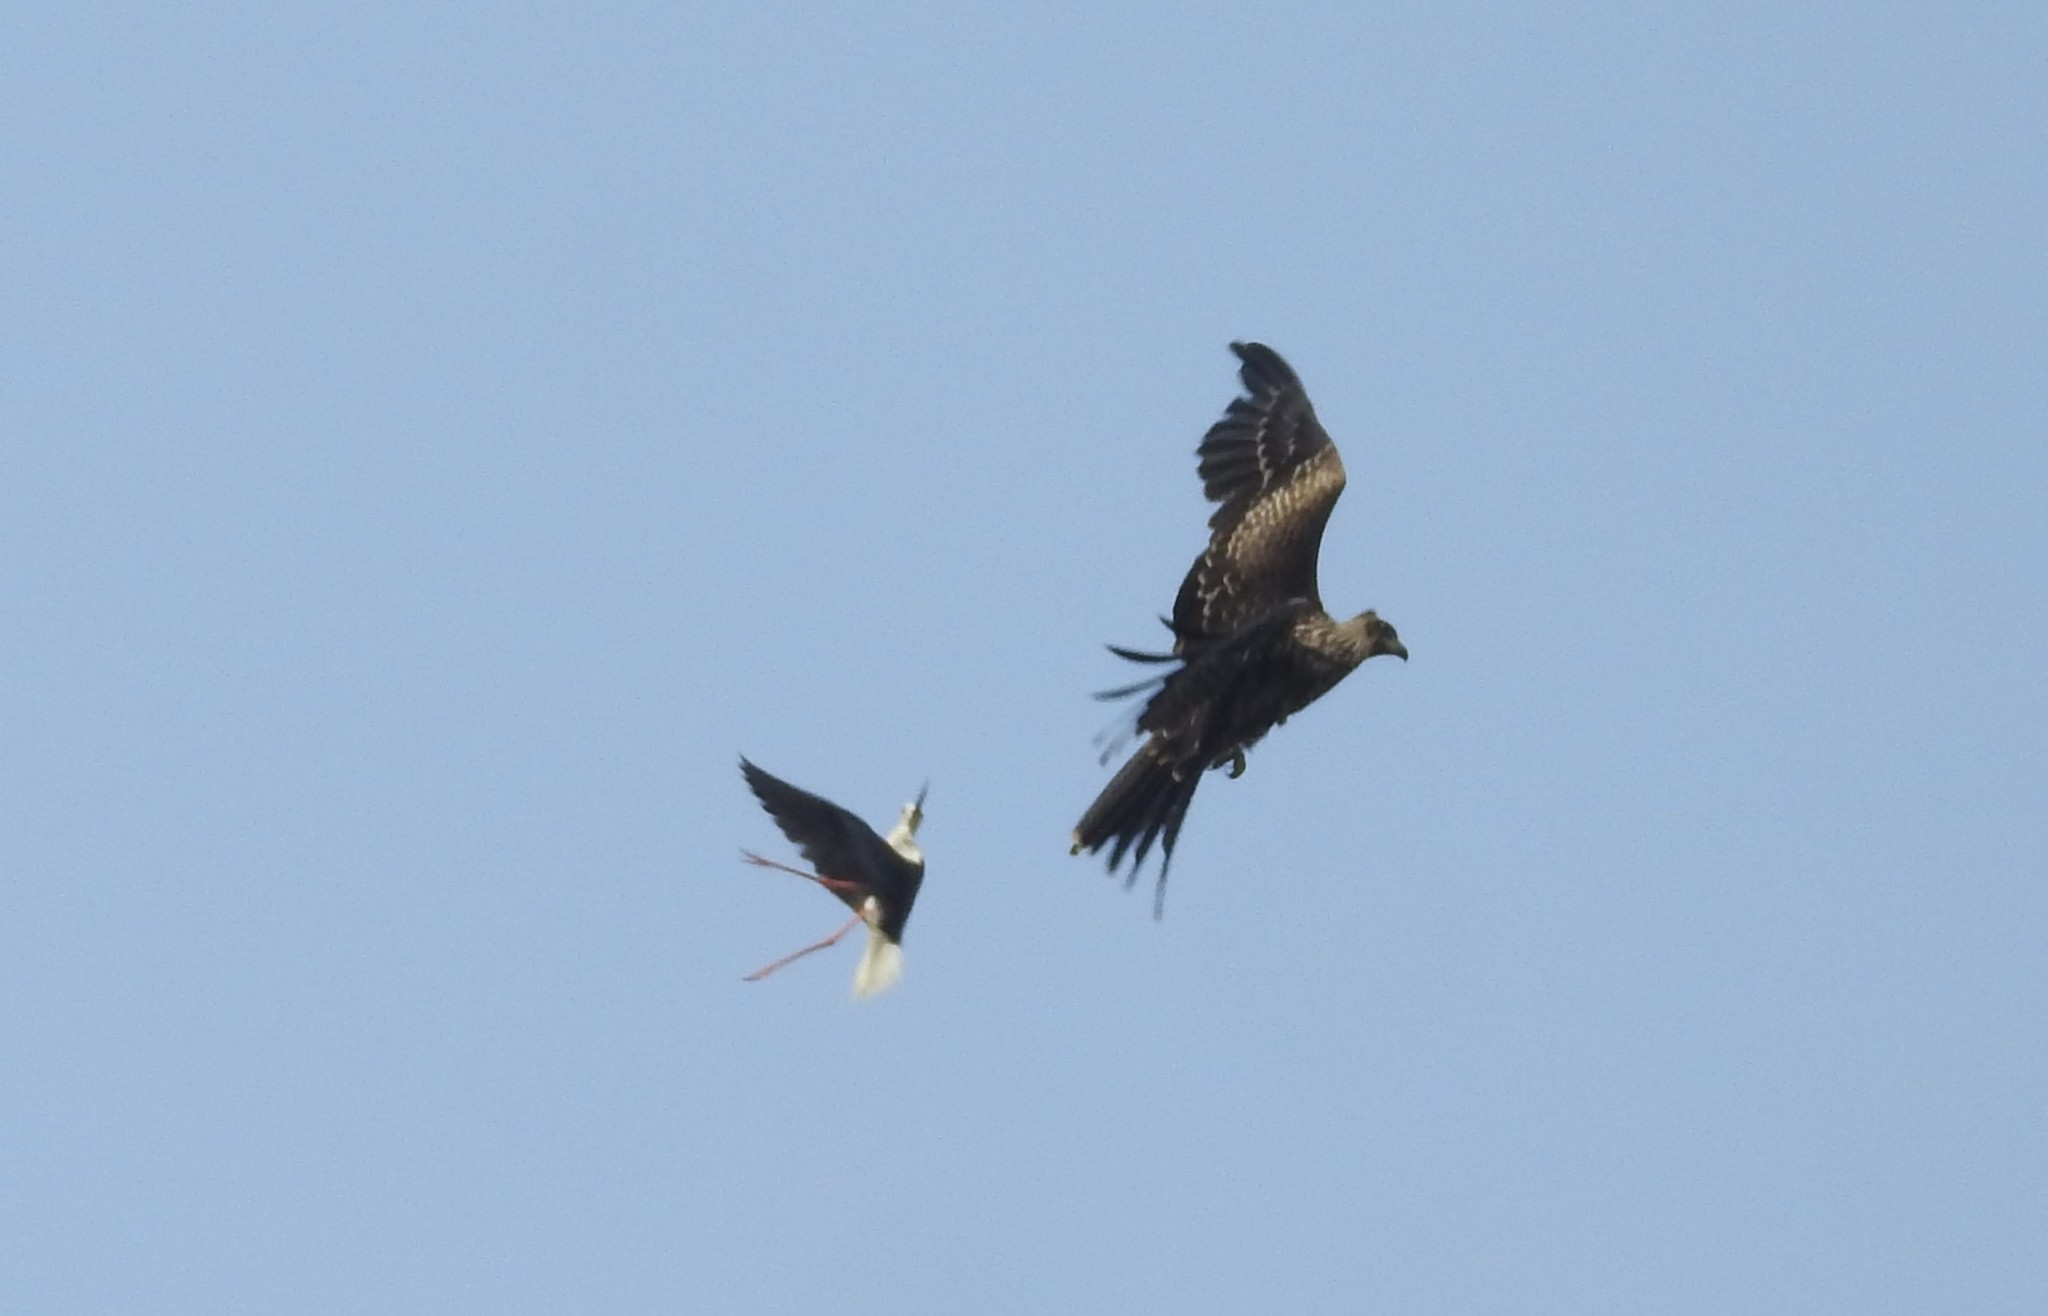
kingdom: Animalia
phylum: Chordata
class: Aves
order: Charadriiformes
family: Recurvirostridae
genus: Himantopus
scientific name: Himantopus himantopus
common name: Black-winged stilt
